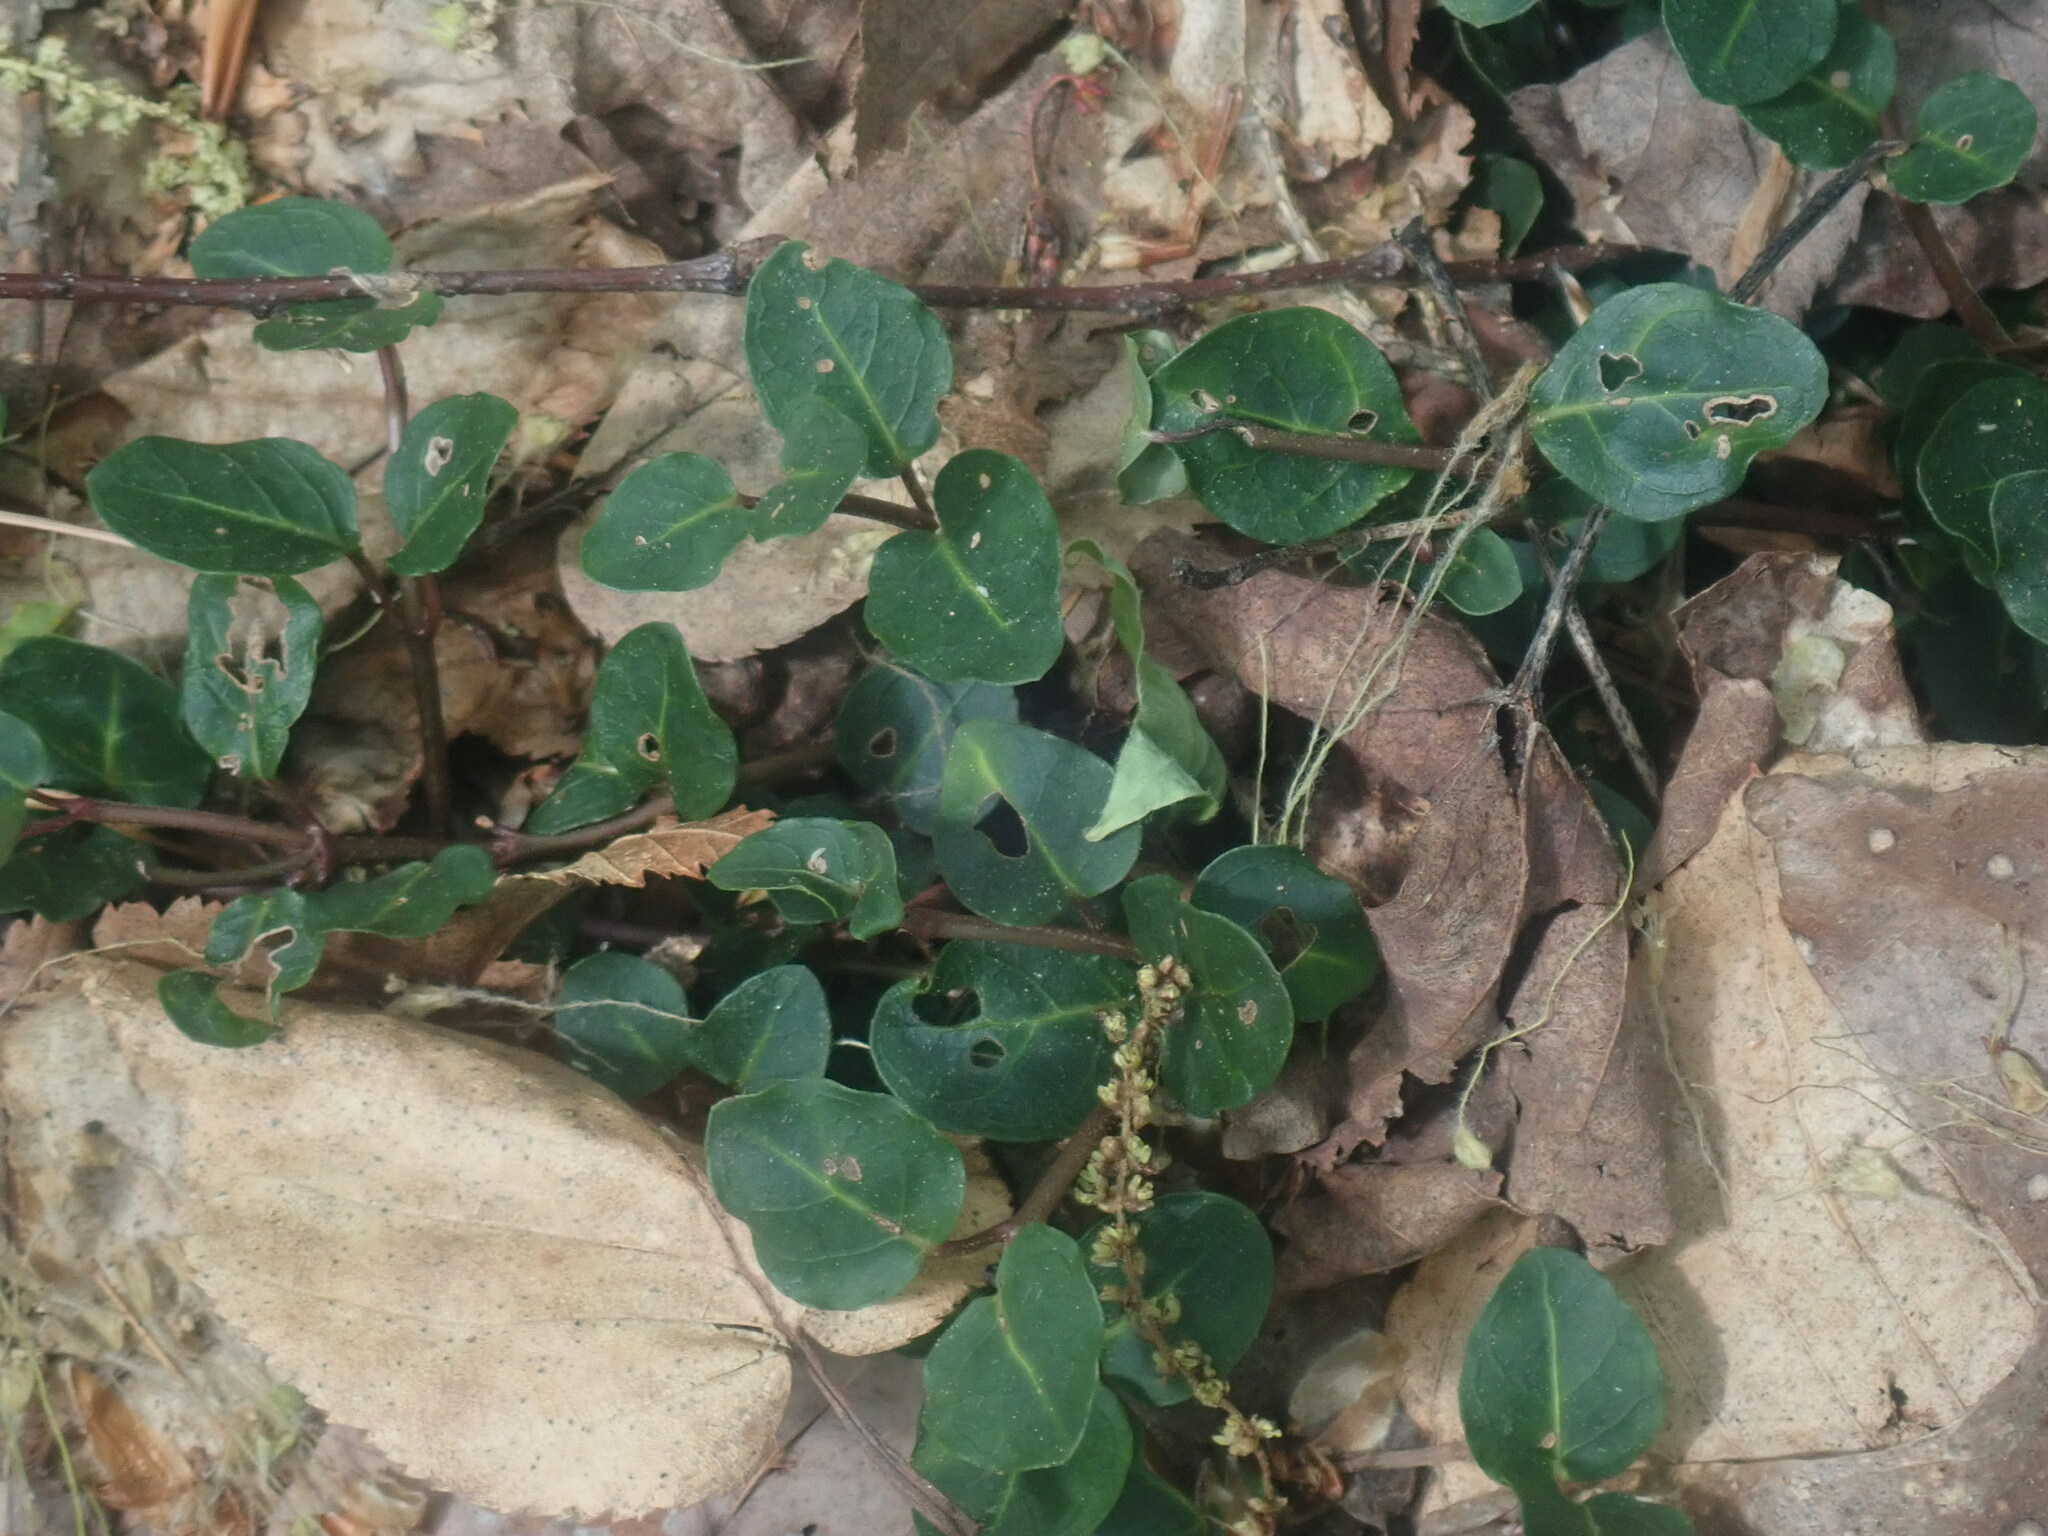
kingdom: Plantae
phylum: Tracheophyta
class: Magnoliopsida
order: Gentianales
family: Rubiaceae
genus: Mitchella
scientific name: Mitchella repens
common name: Partridge-berry
